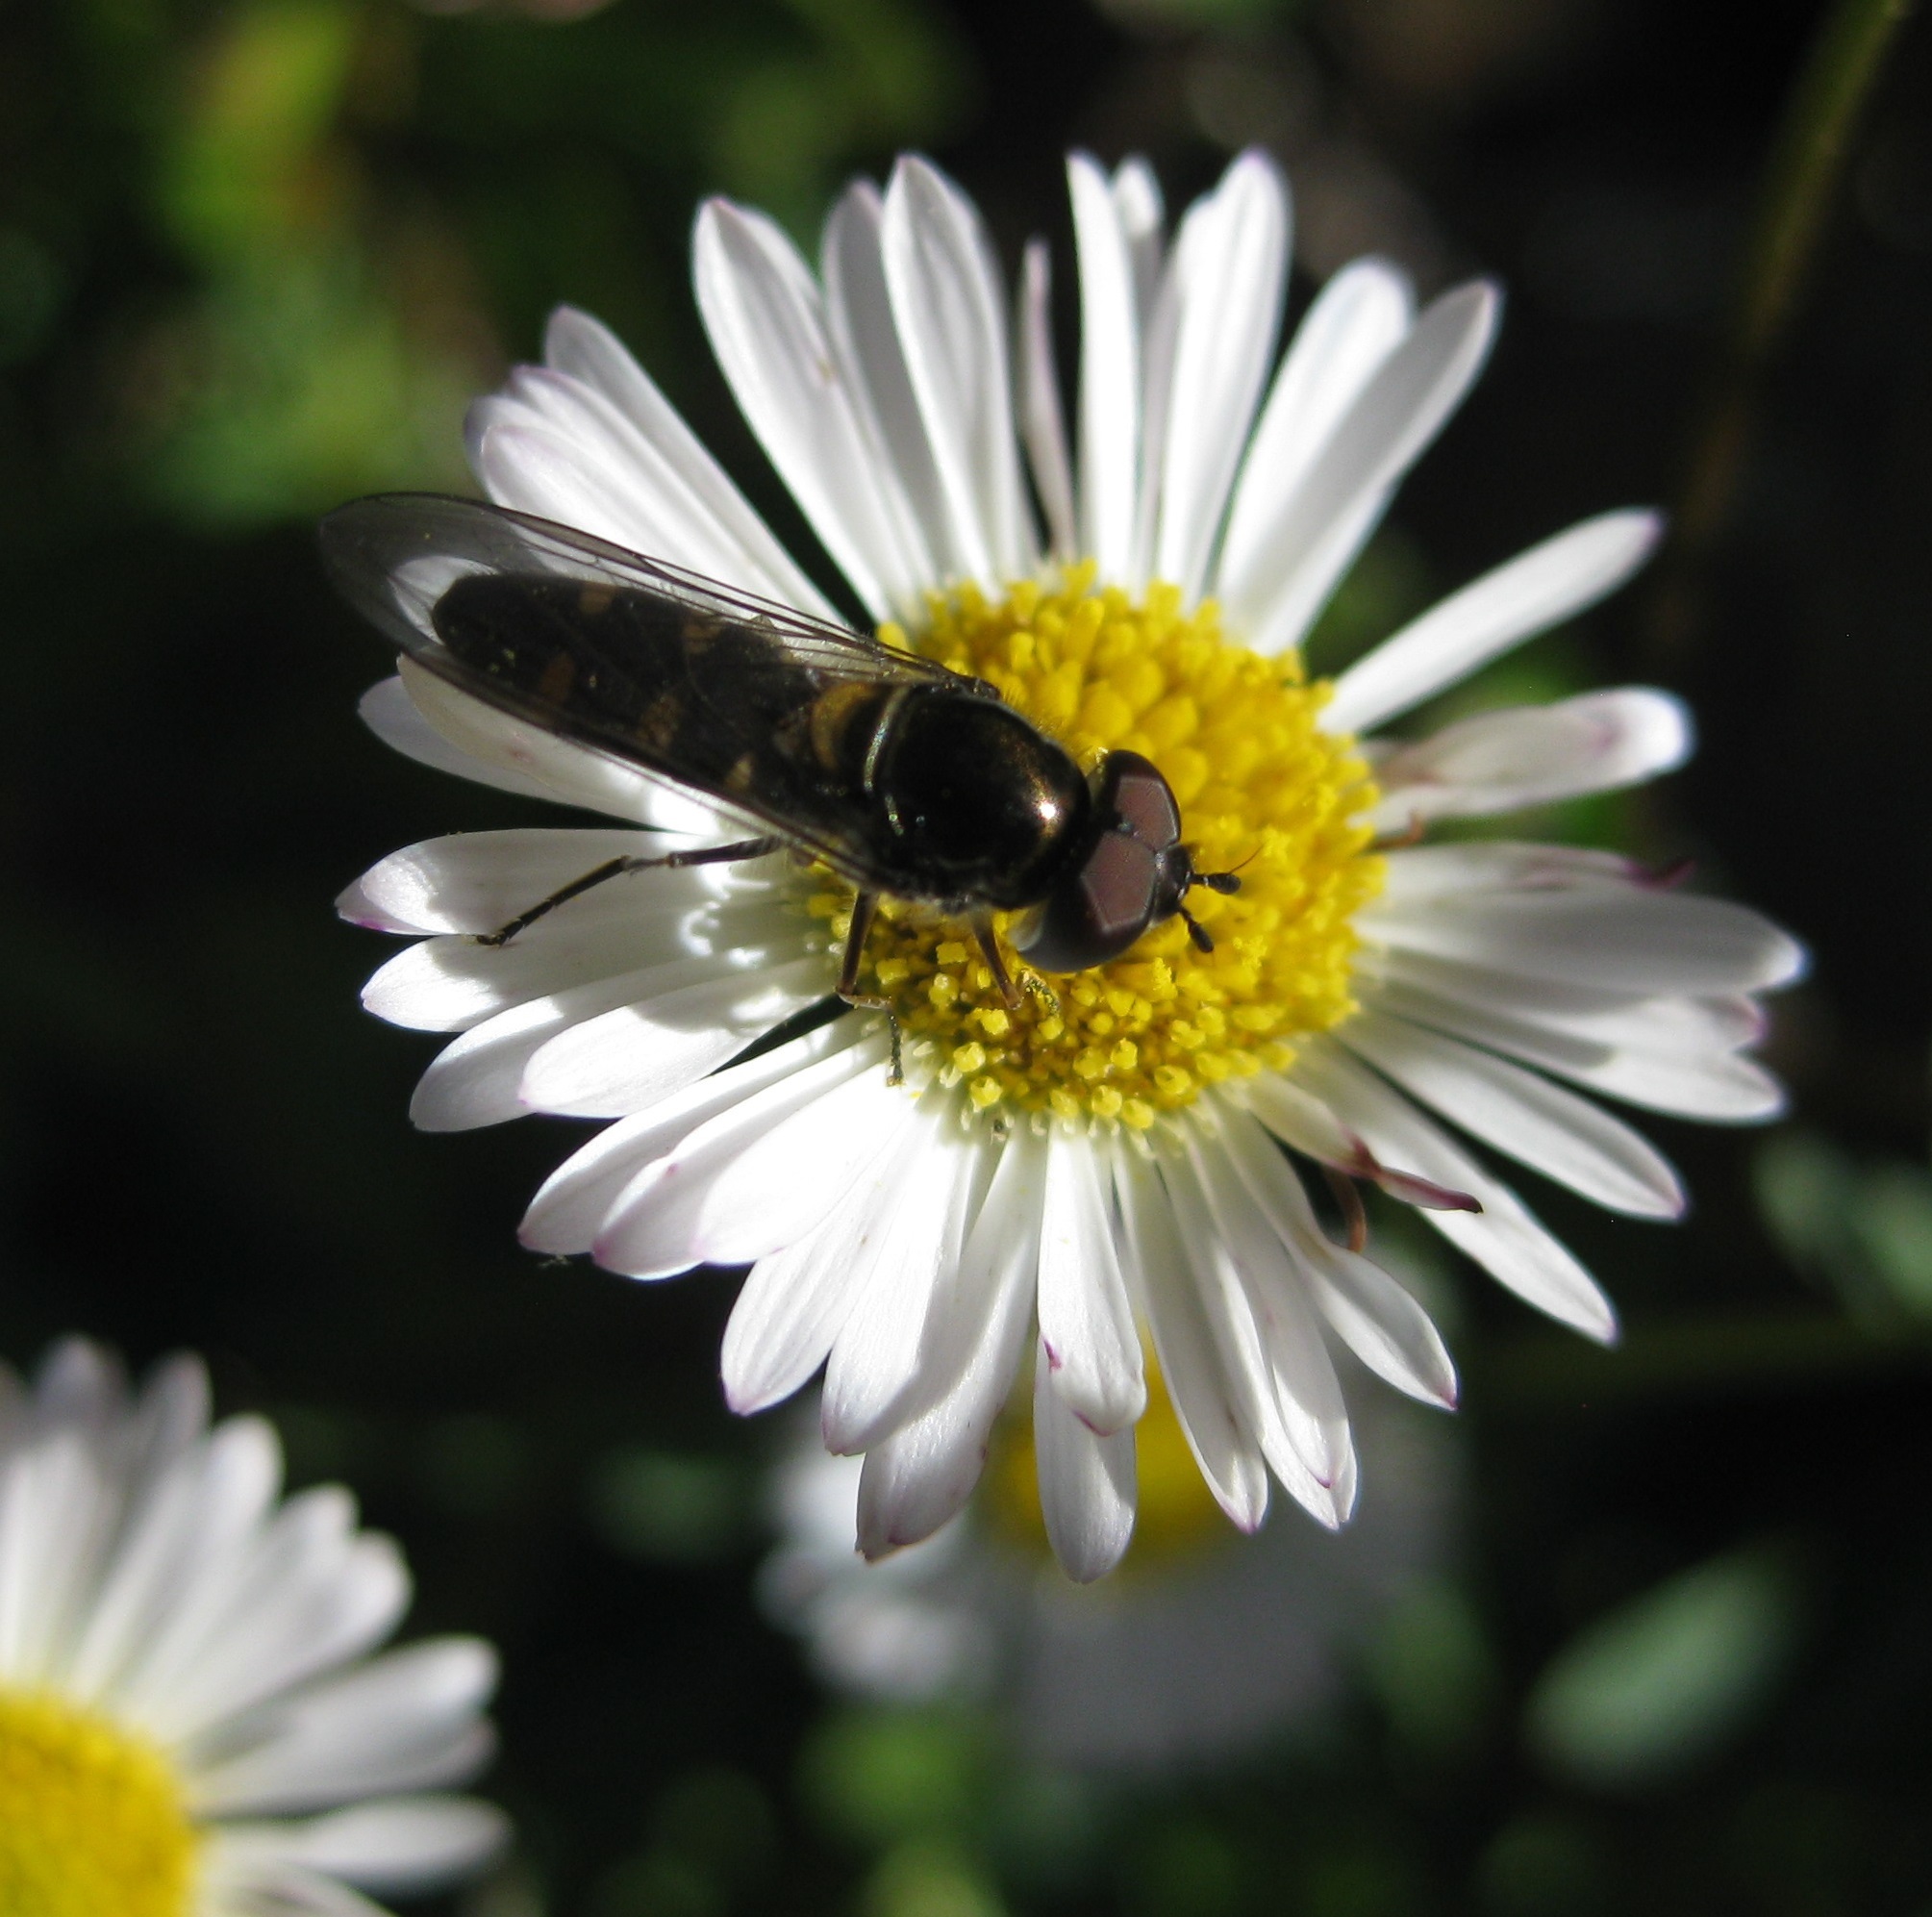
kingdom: Animalia
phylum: Arthropoda
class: Insecta
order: Diptera
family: Syrphidae
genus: Melangyna
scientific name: Melangyna novaezelandiae
